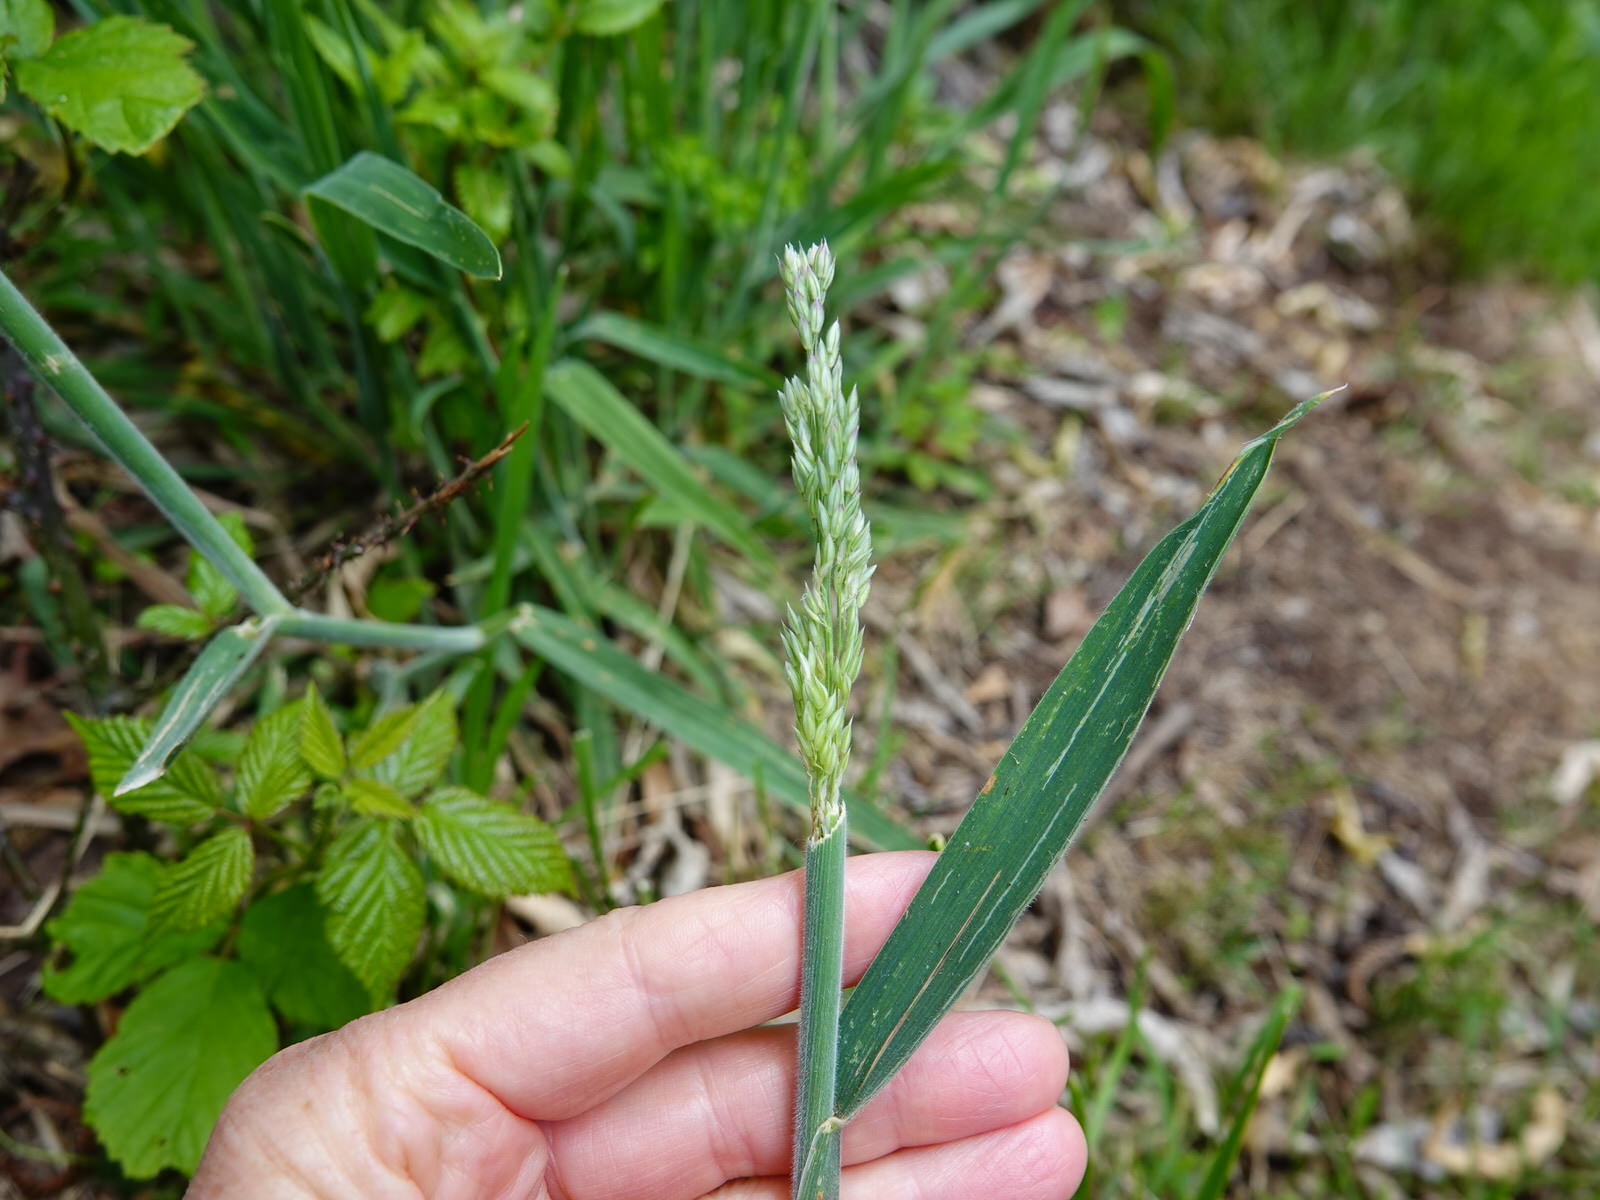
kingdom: Plantae
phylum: Tracheophyta
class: Liliopsida
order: Poales
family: Poaceae
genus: Holcus
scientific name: Holcus lanatus
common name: Yorkshire-fog
